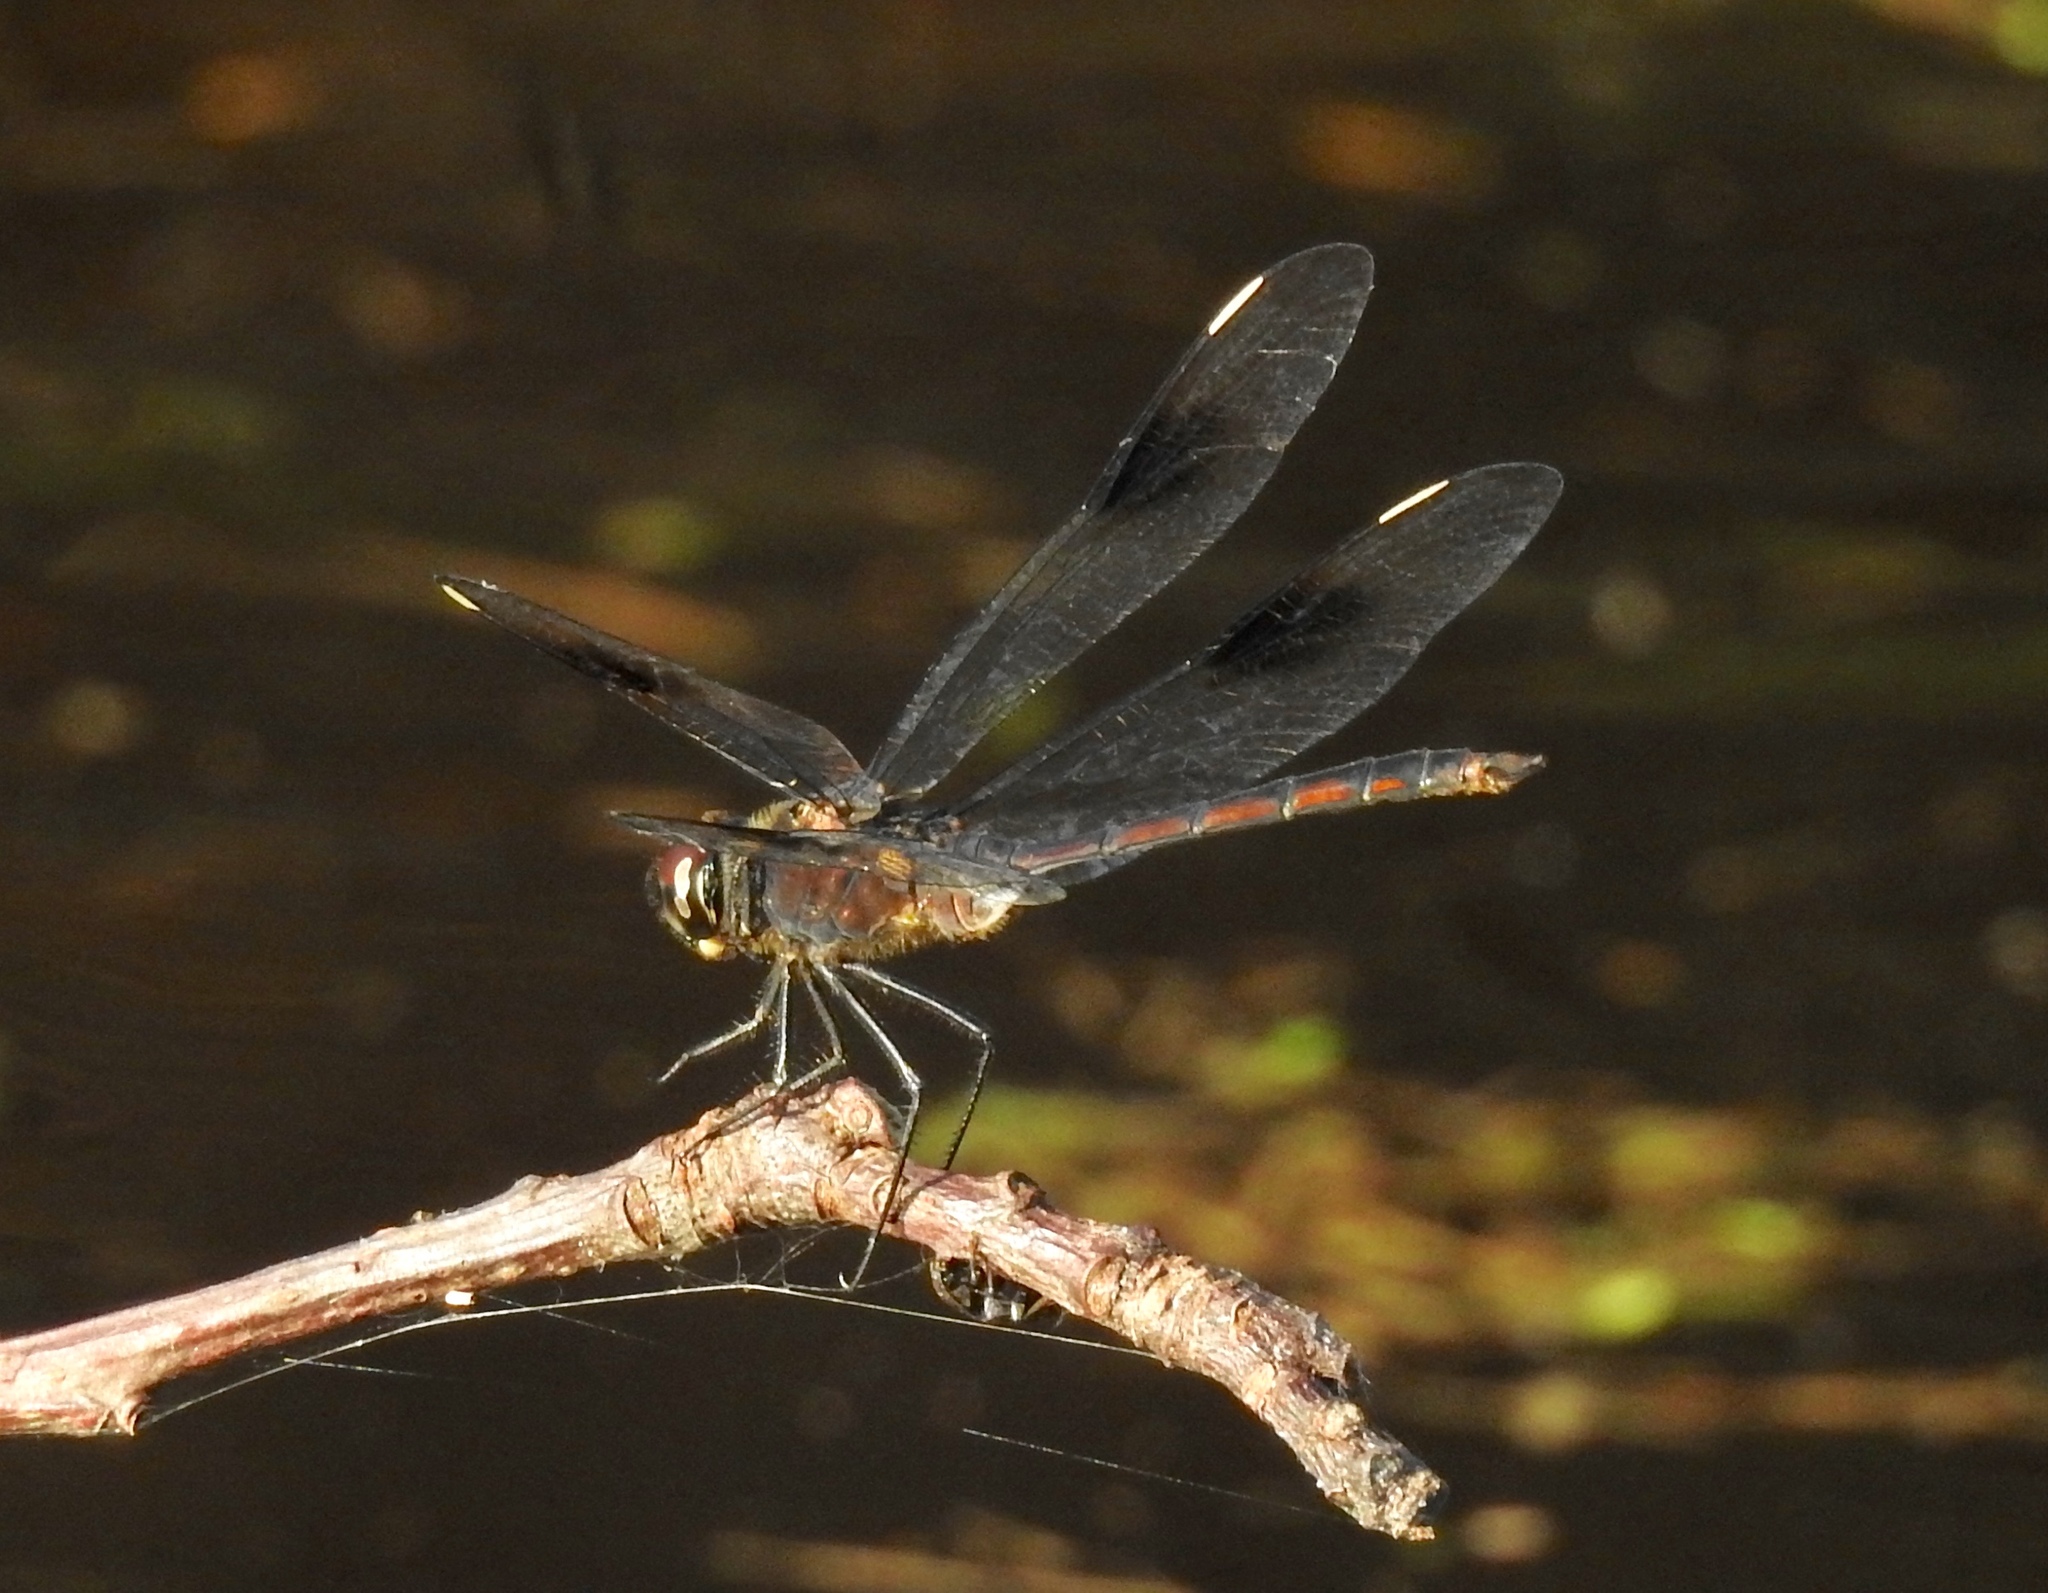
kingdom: Animalia
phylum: Arthropoda
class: Insecta
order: Odonata
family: Libellulidae
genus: Brachymesia
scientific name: Brachymesia gravida
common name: Four-spotted pennant
